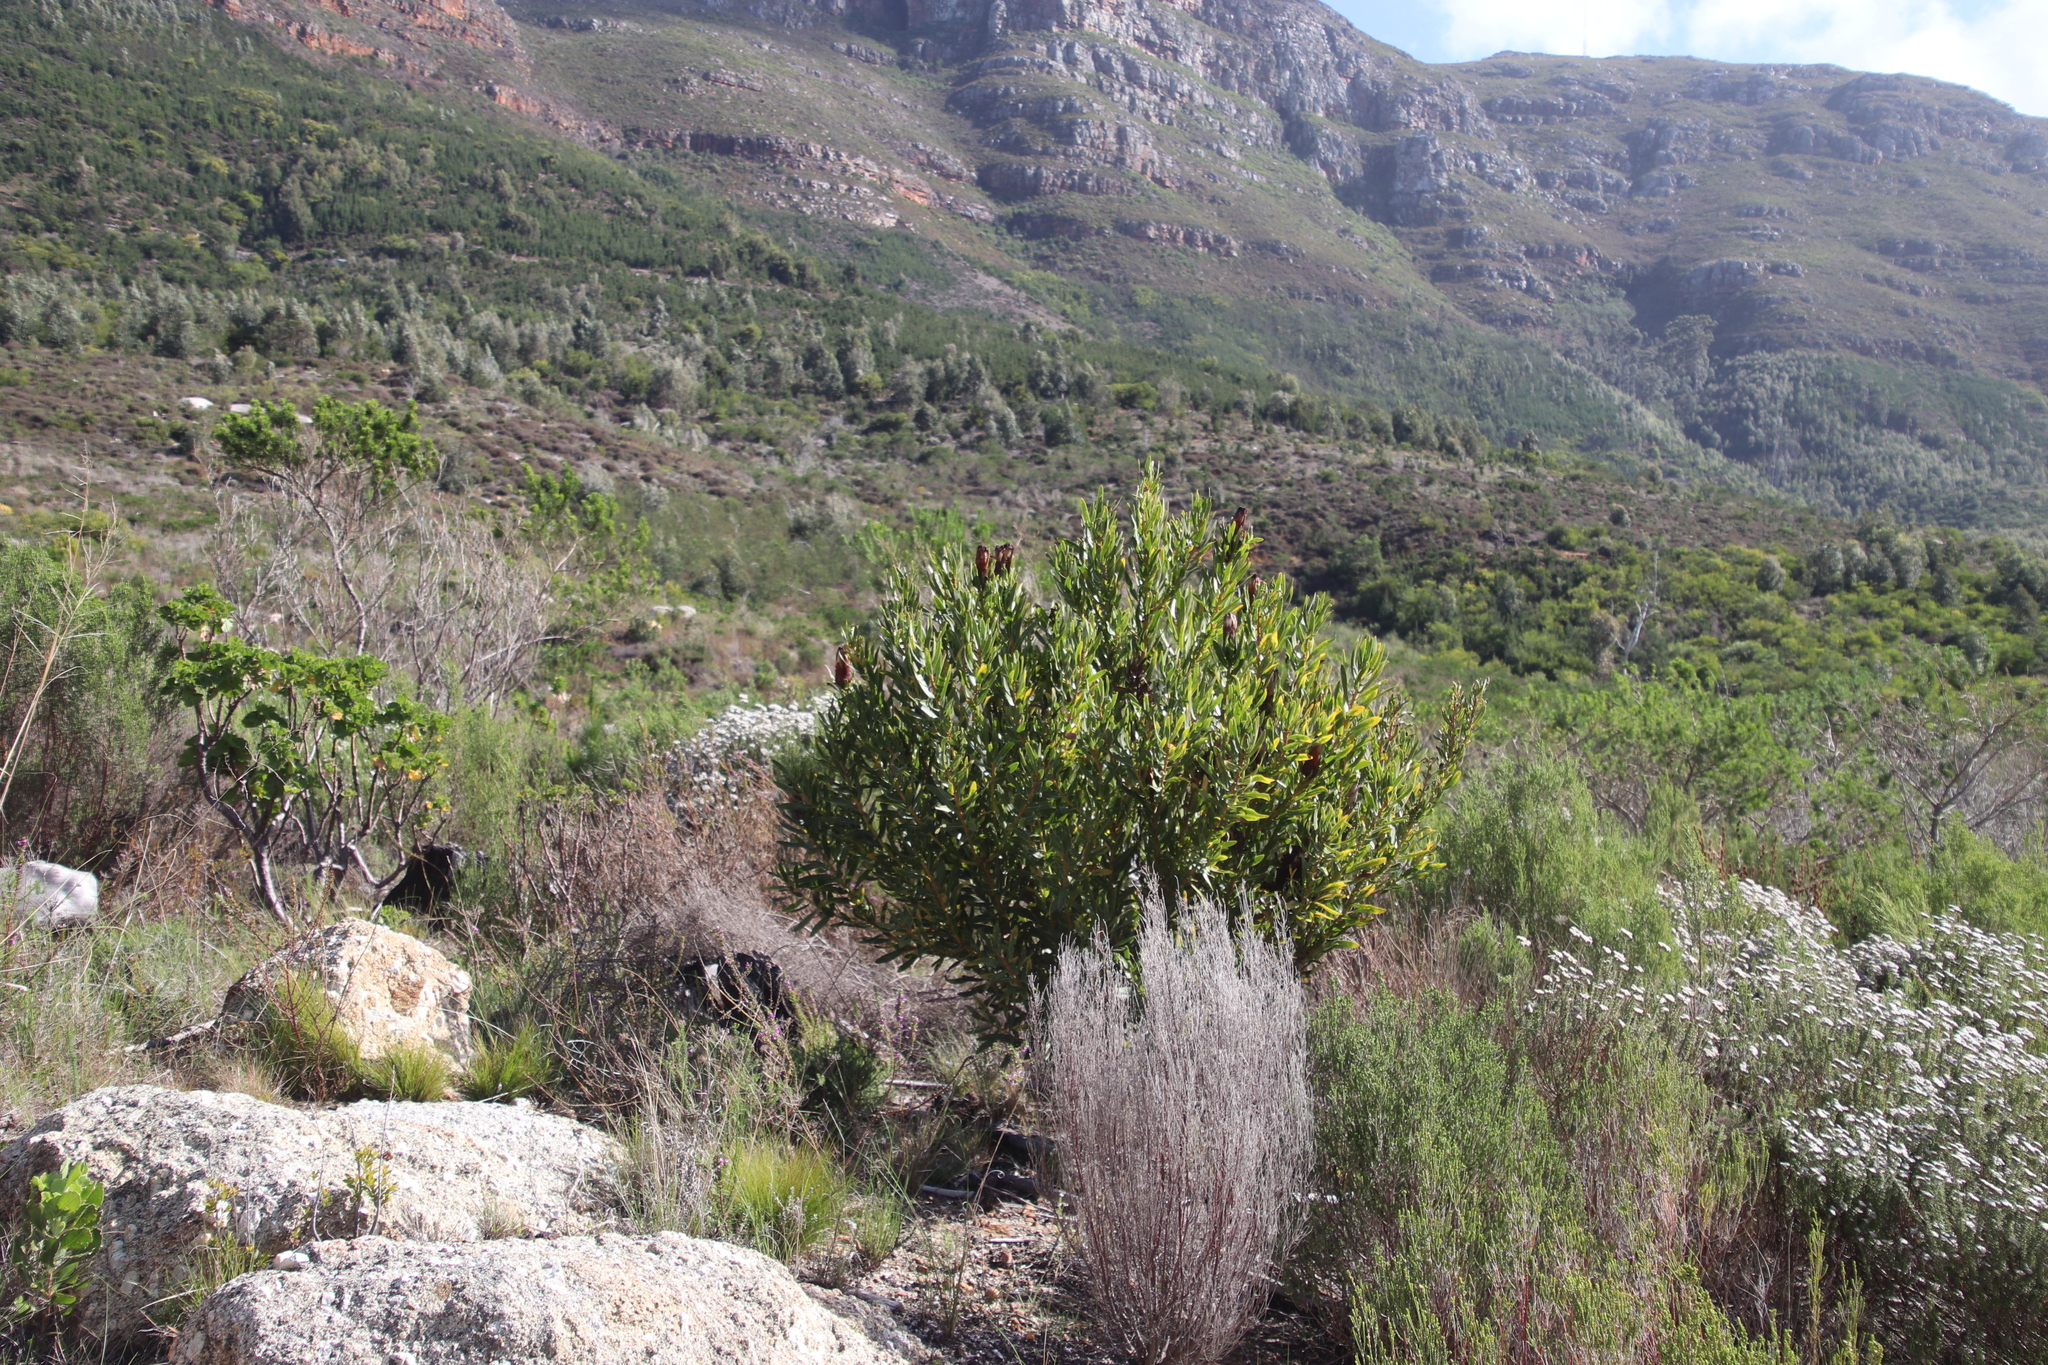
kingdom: Plantae
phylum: Tracheophyta
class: Magnoliopsida
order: Proteales
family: Proteaceae
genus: Protea
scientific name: Protea lepidocarpodendron
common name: Black-bearded protea
